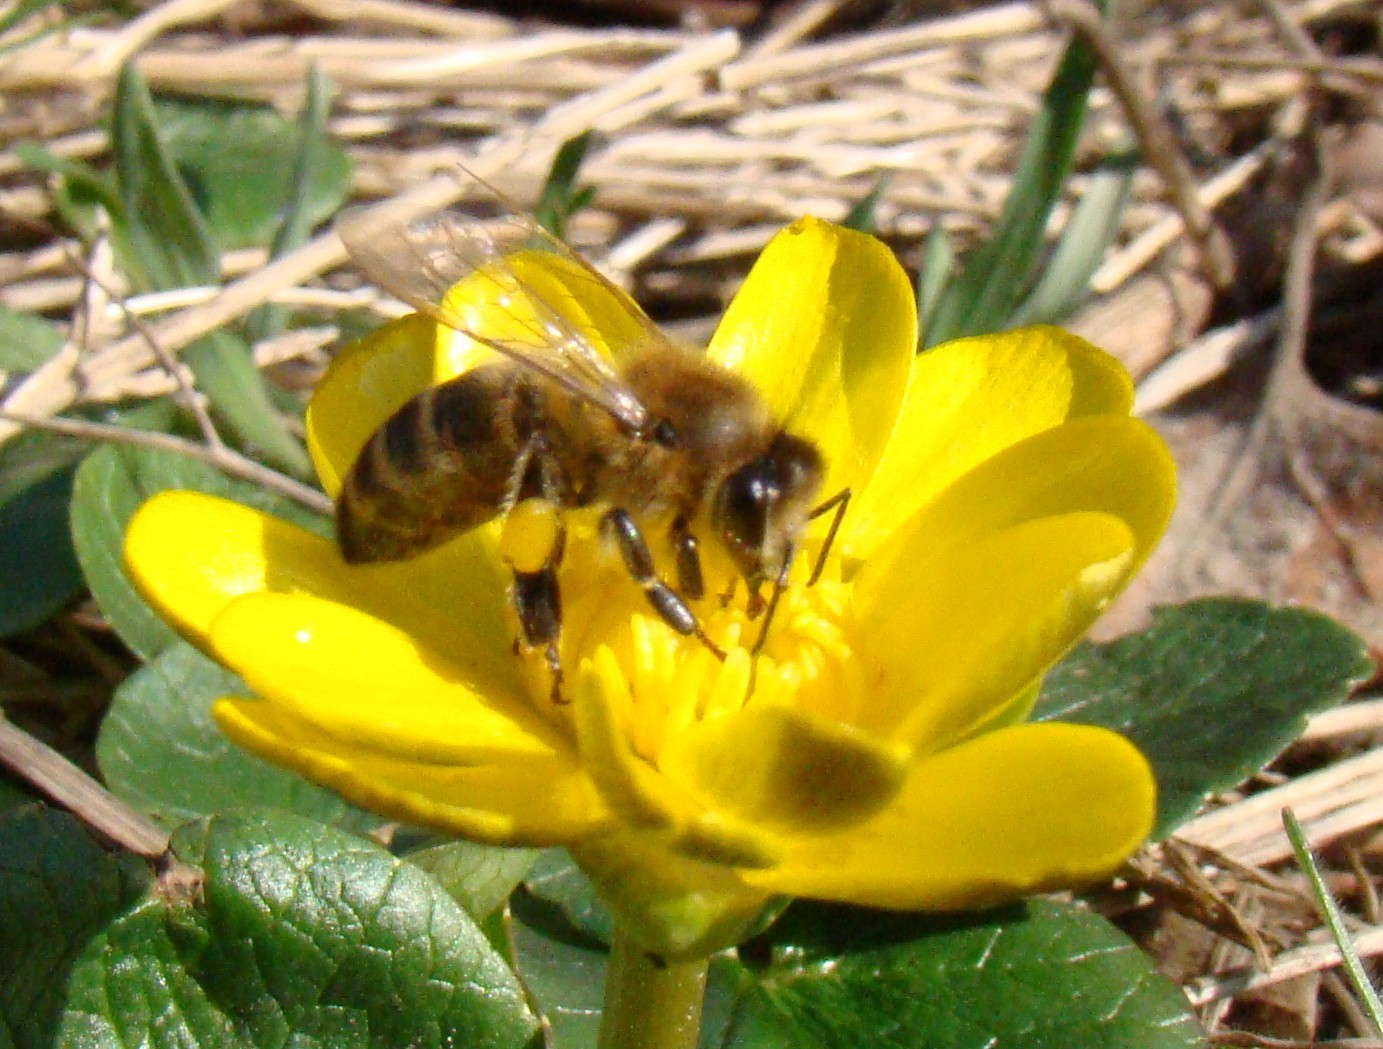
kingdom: Animalia
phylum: Arthropoda
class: Insecta
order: Hymenoptera
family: Apidae
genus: Apis
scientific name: Apis mellifera
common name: Honey bee
